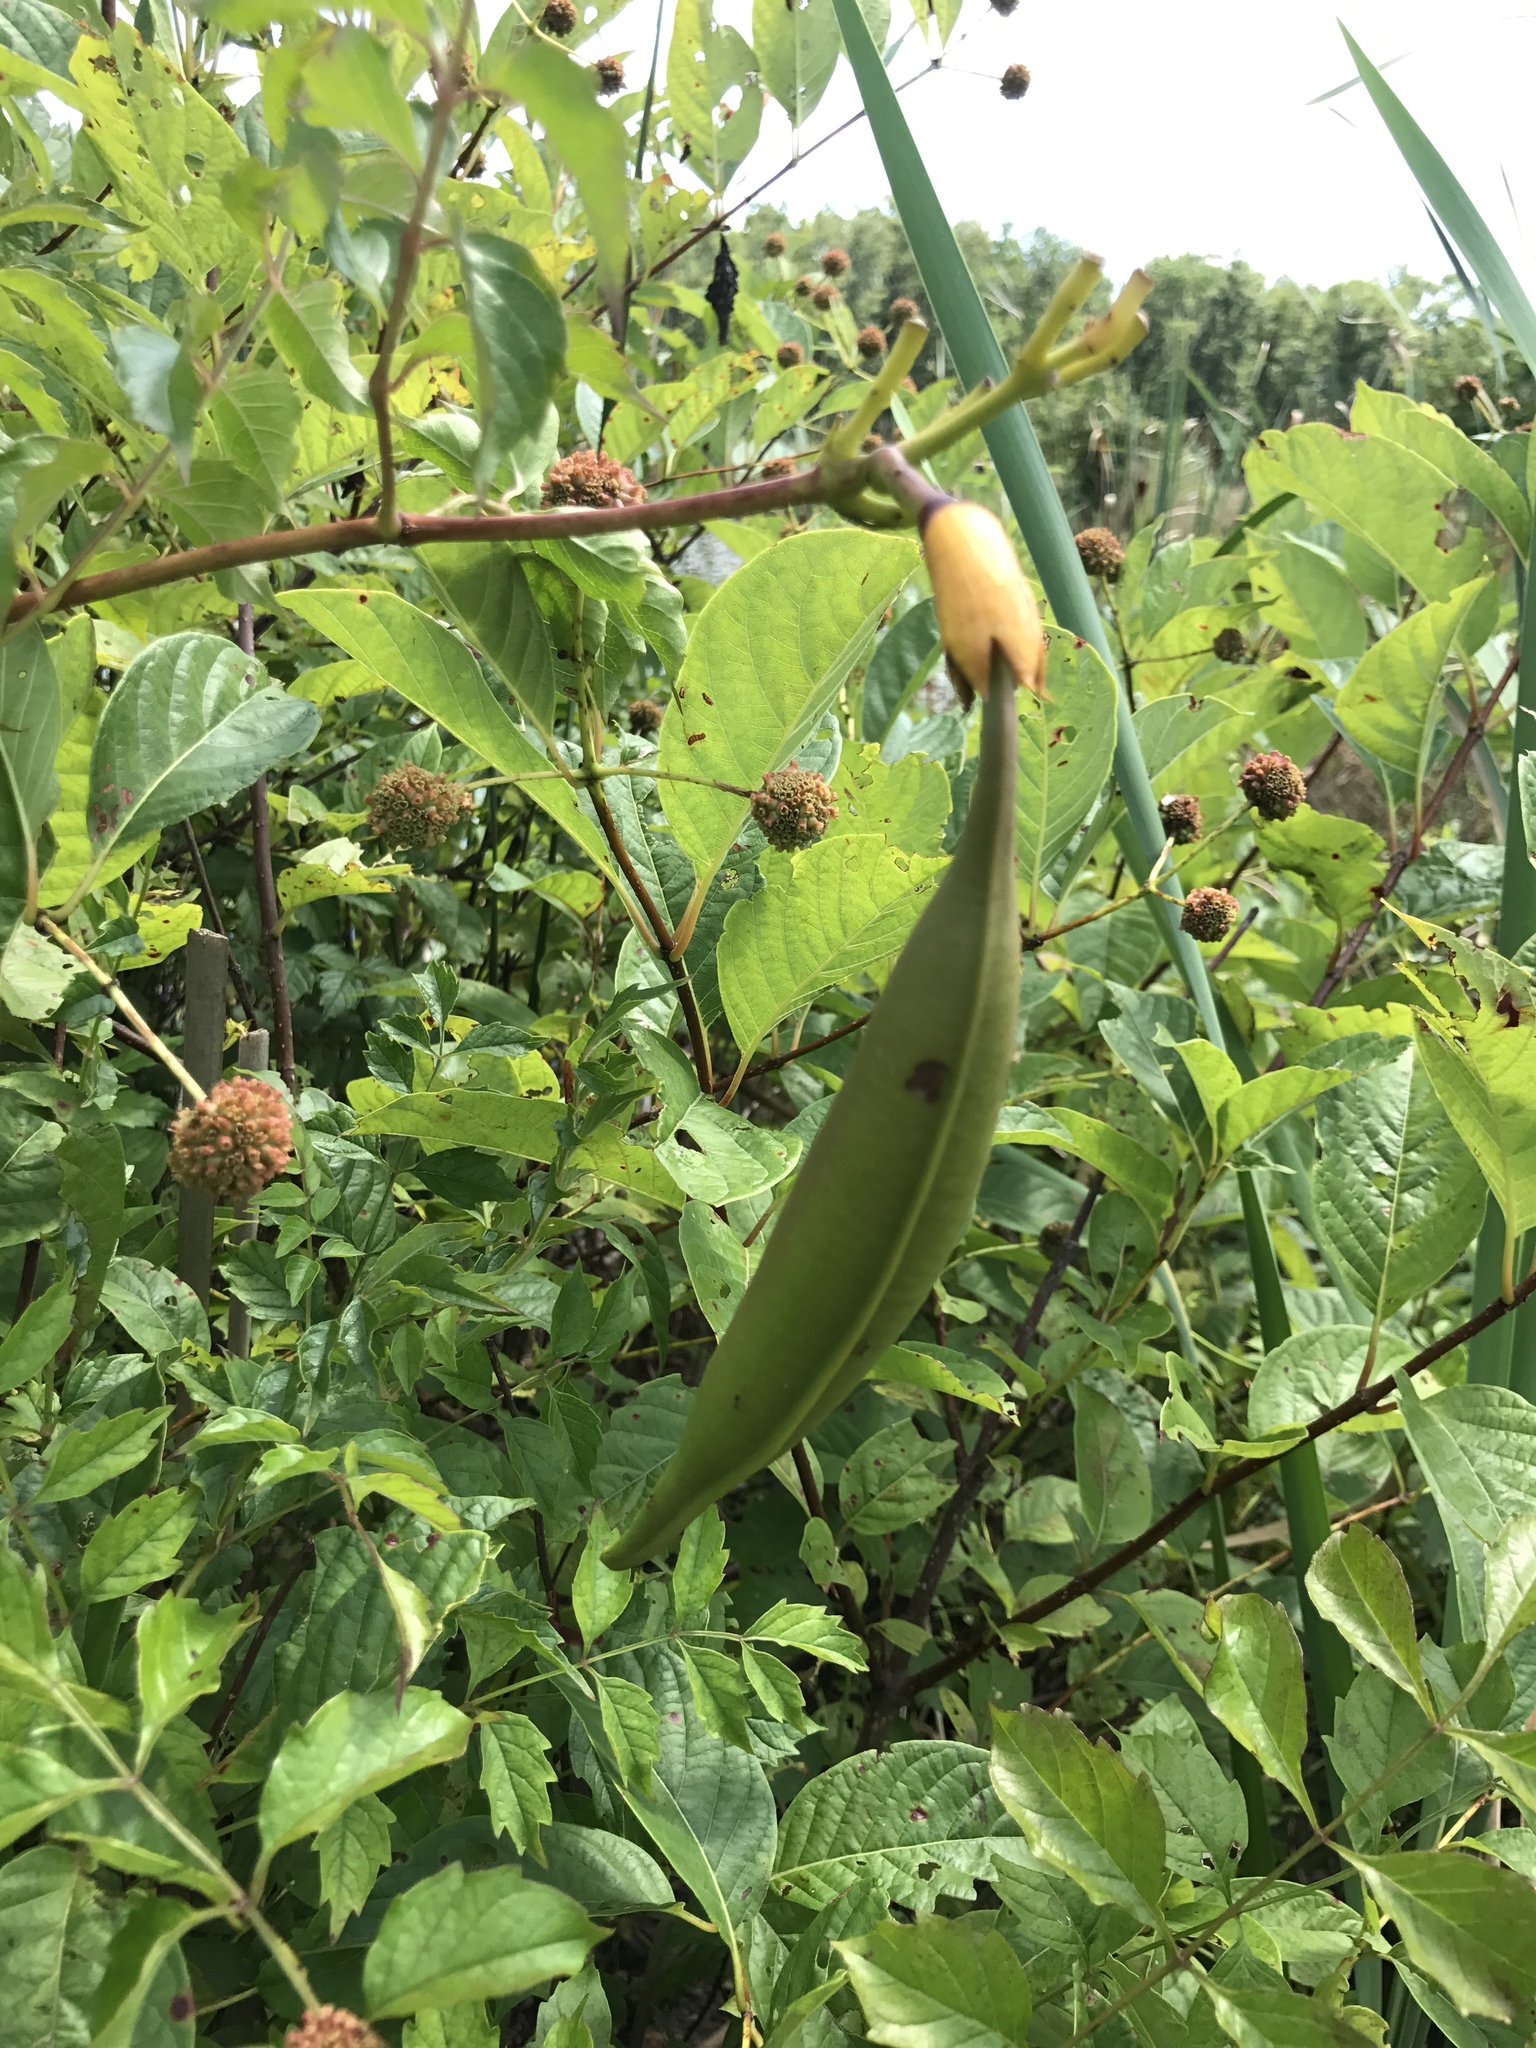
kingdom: Plantae
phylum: Tracheophyta
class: Magnoliopsida
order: Lamiales
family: Bignoniaceae
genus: Campsis
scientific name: Campsis radicans
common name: Trumpet-creeper
